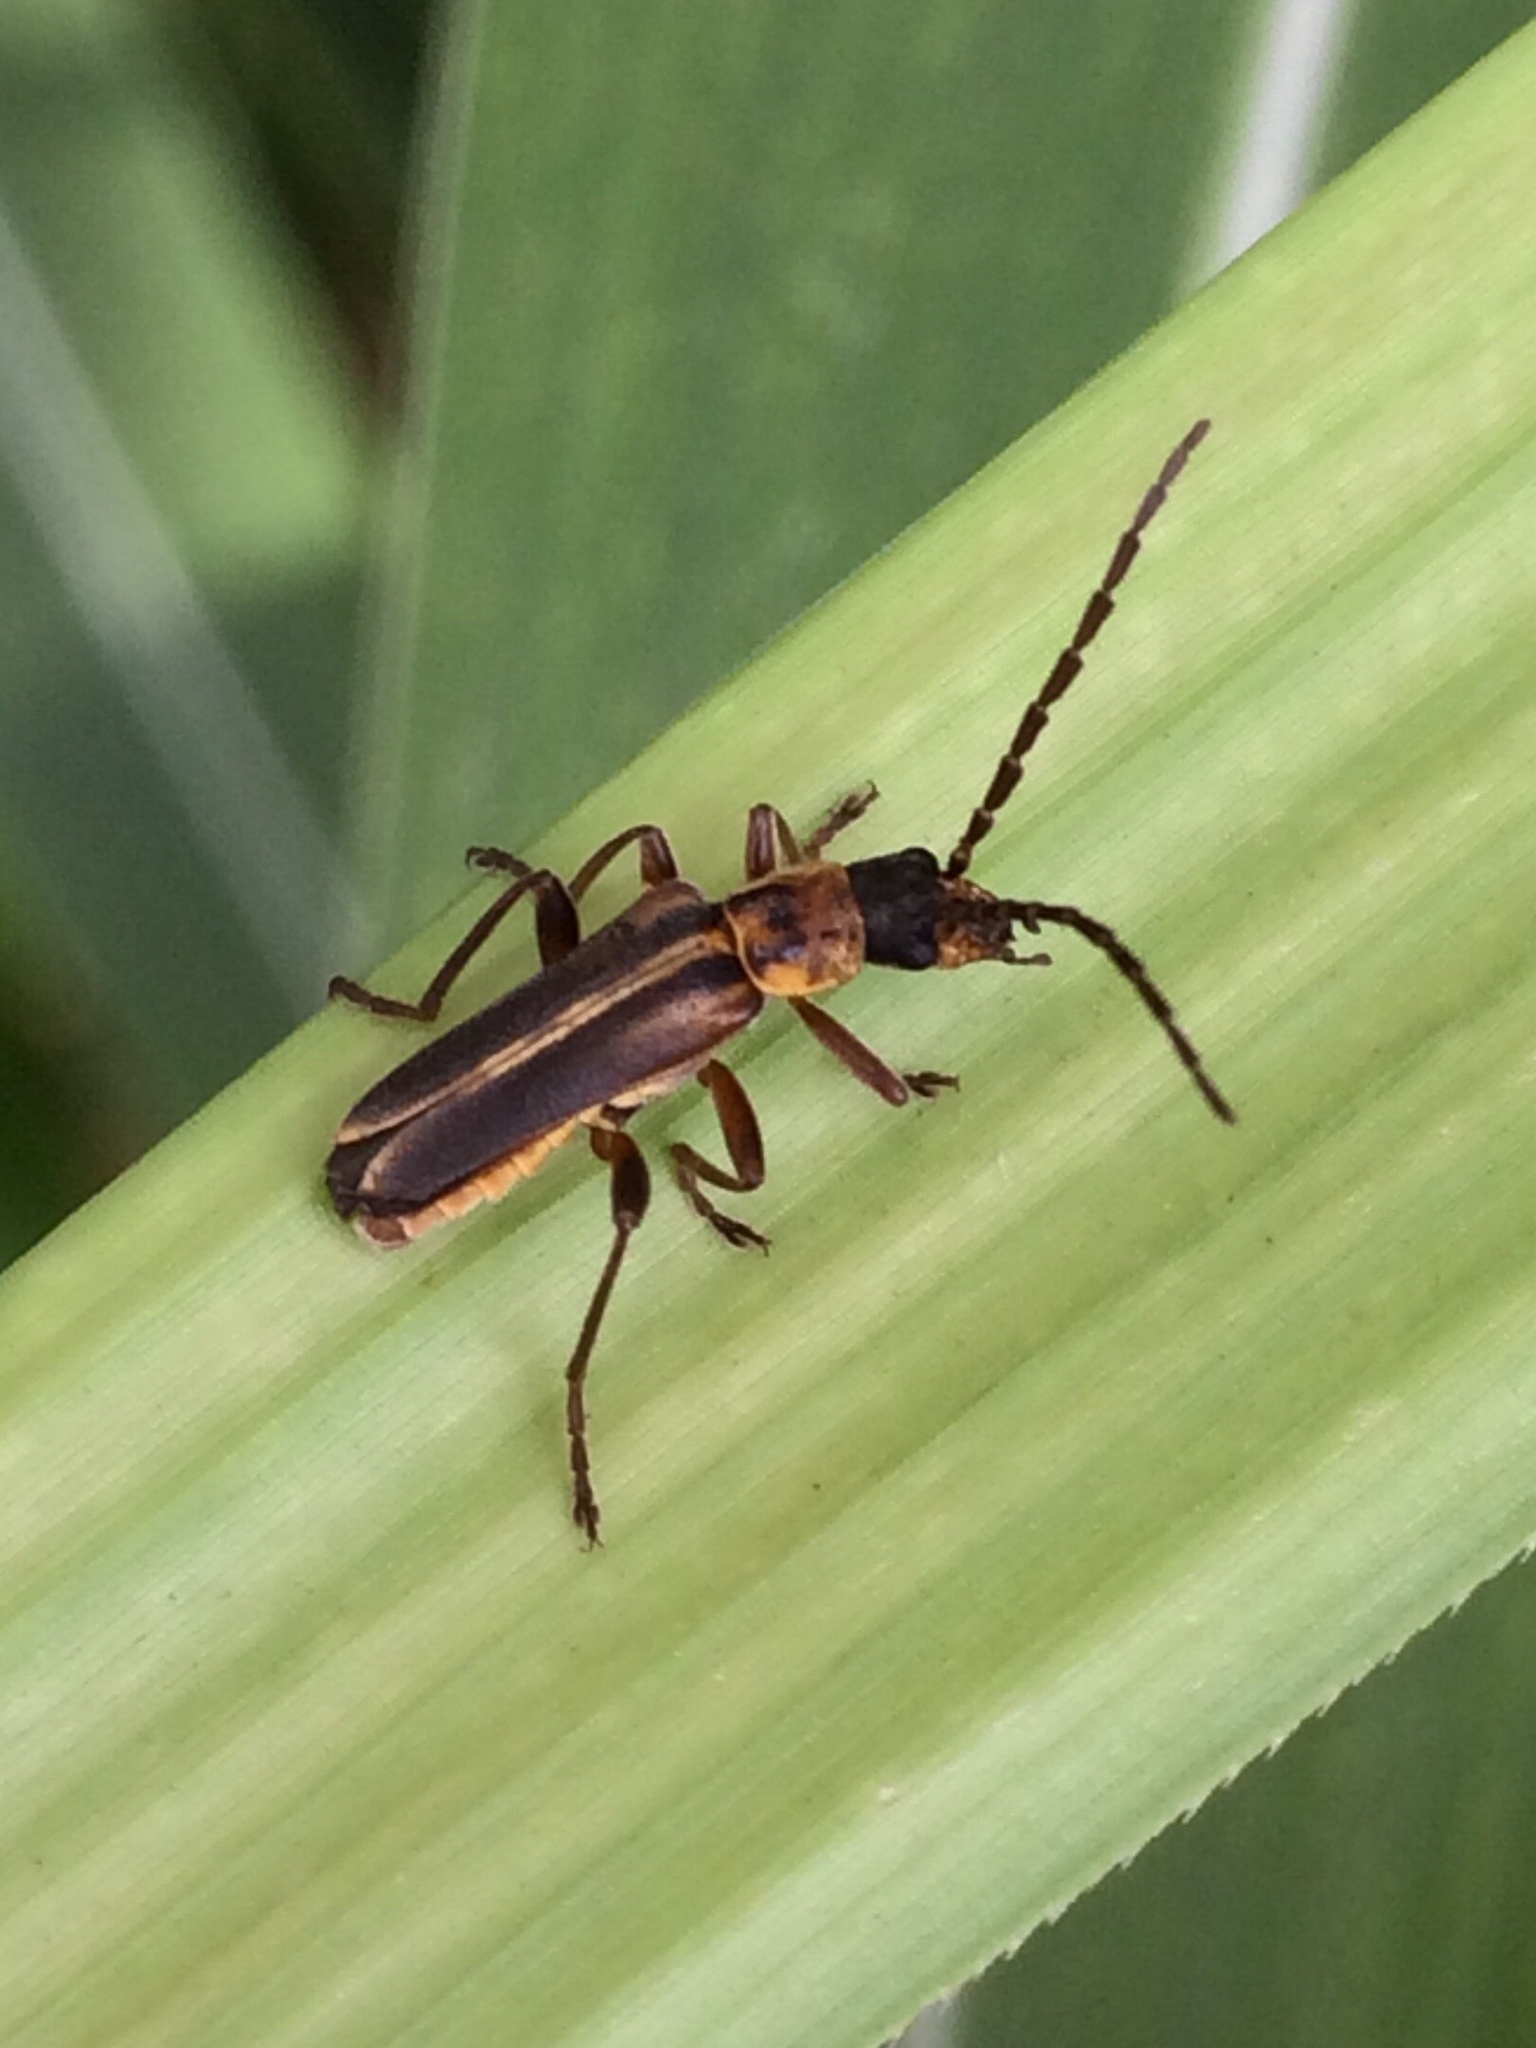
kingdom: Animalia
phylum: Arthropoda
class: Insecta
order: Coleoptera
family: Cantharidae
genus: Chauliognathus
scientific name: Chauliognathus
